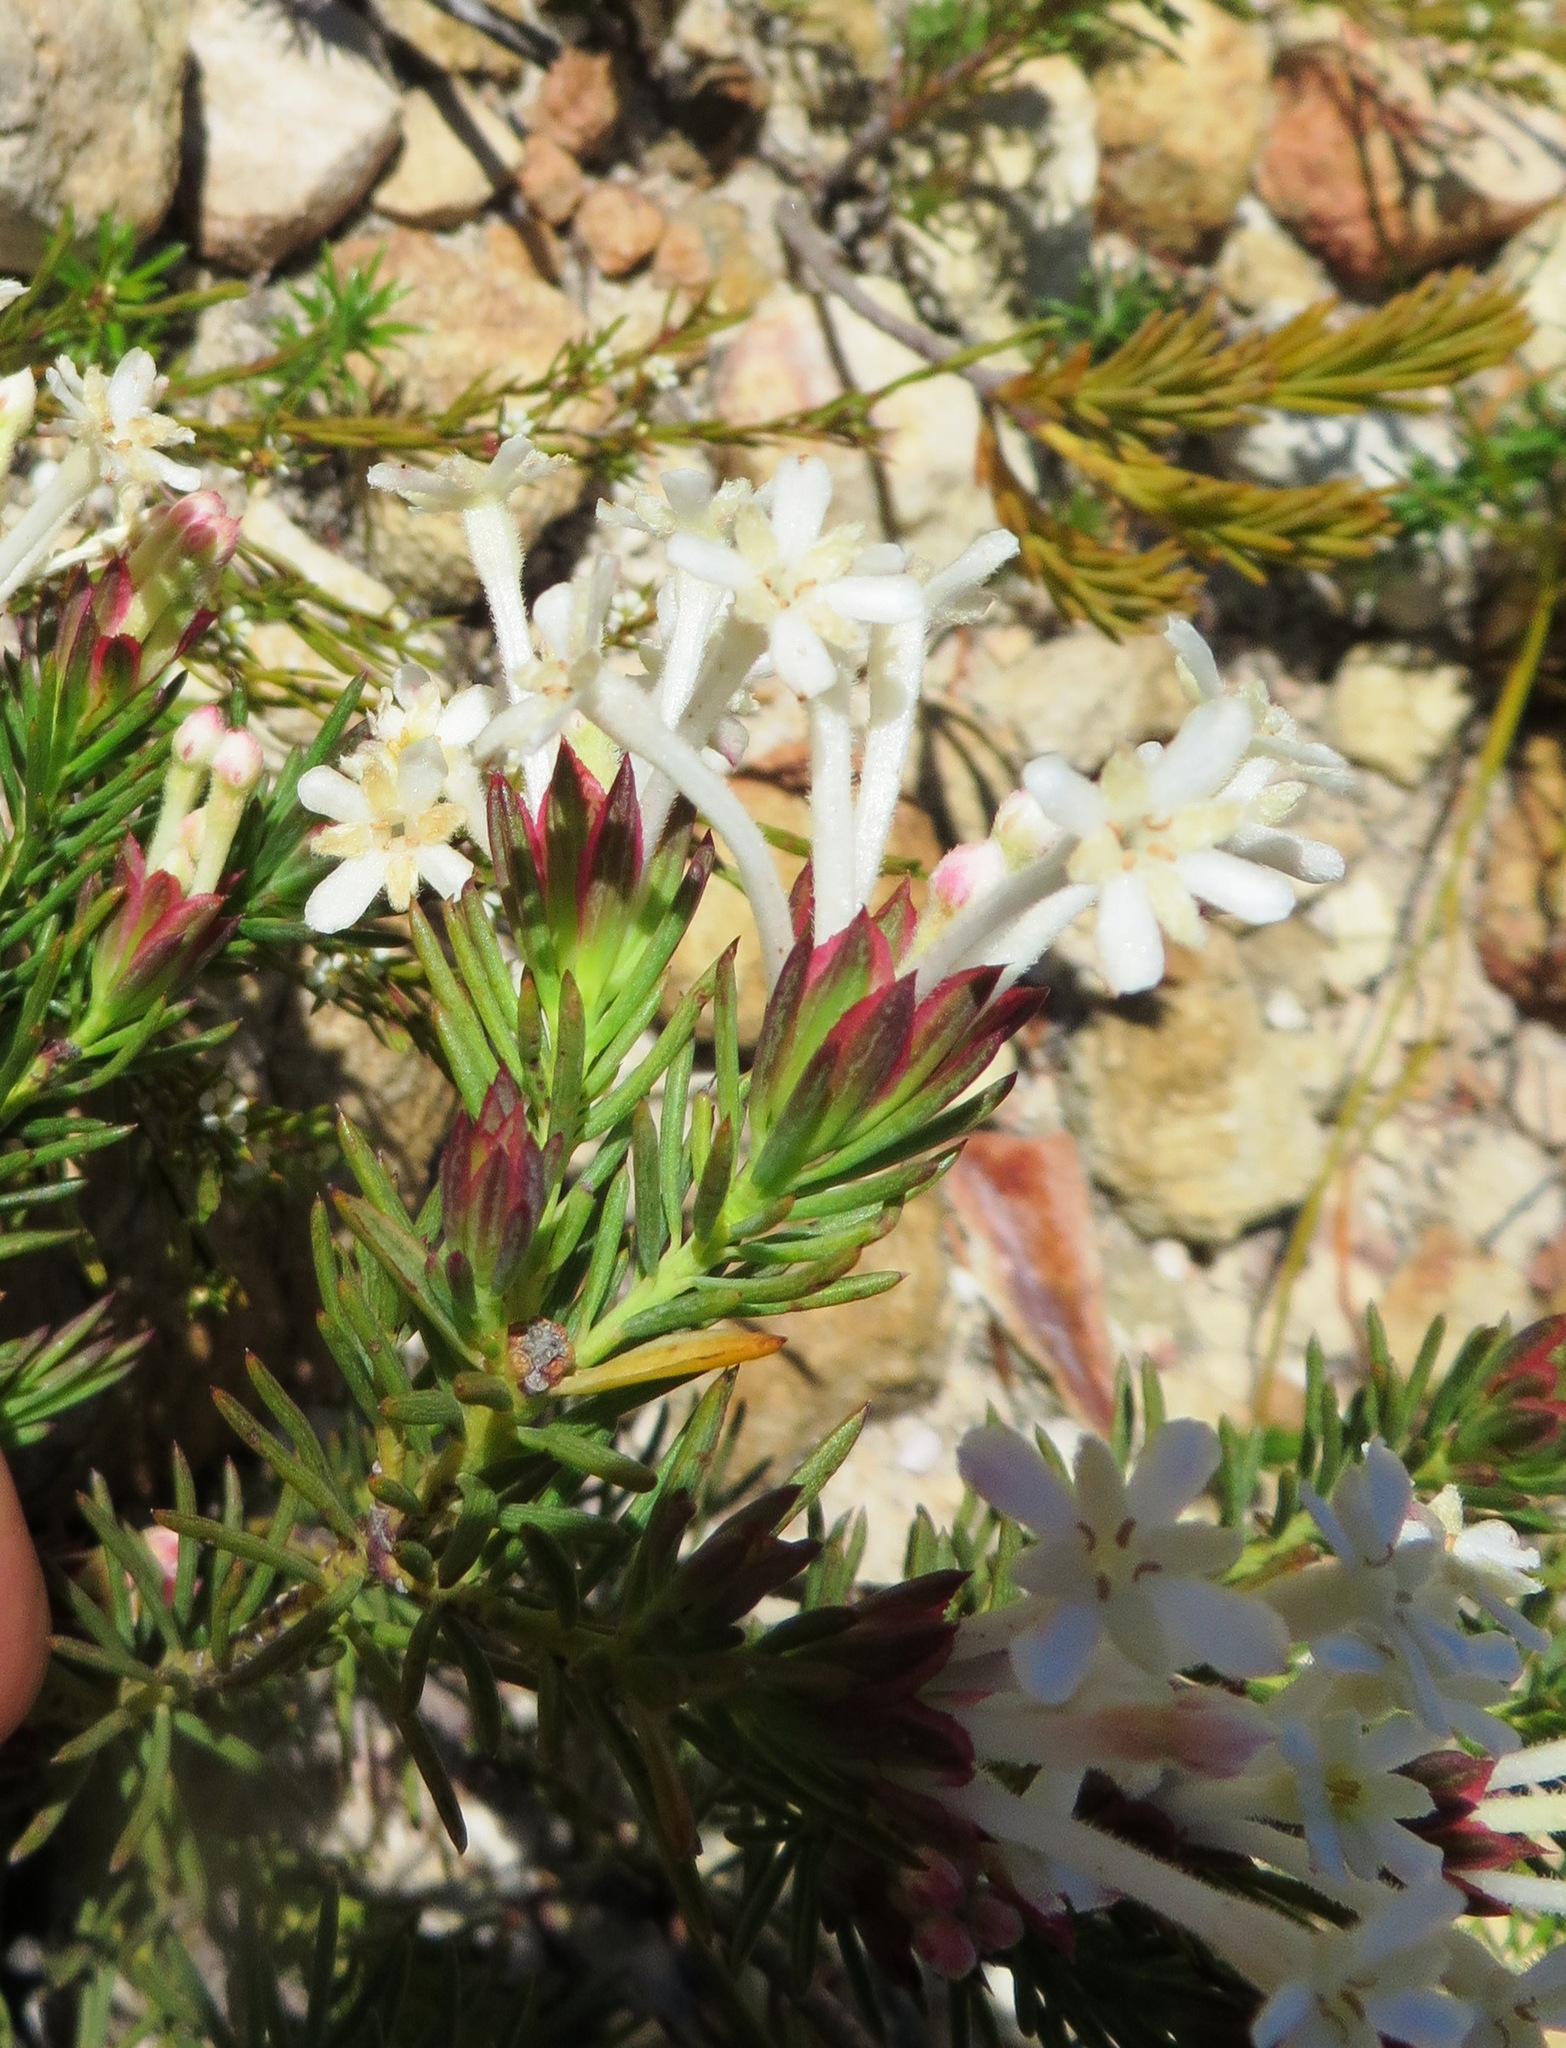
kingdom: Plantae
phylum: Tracheophyta
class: Magnoliopsida
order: Malvales
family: Thymelaeaceae
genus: Gnidia
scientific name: Gnidia pinifolia
